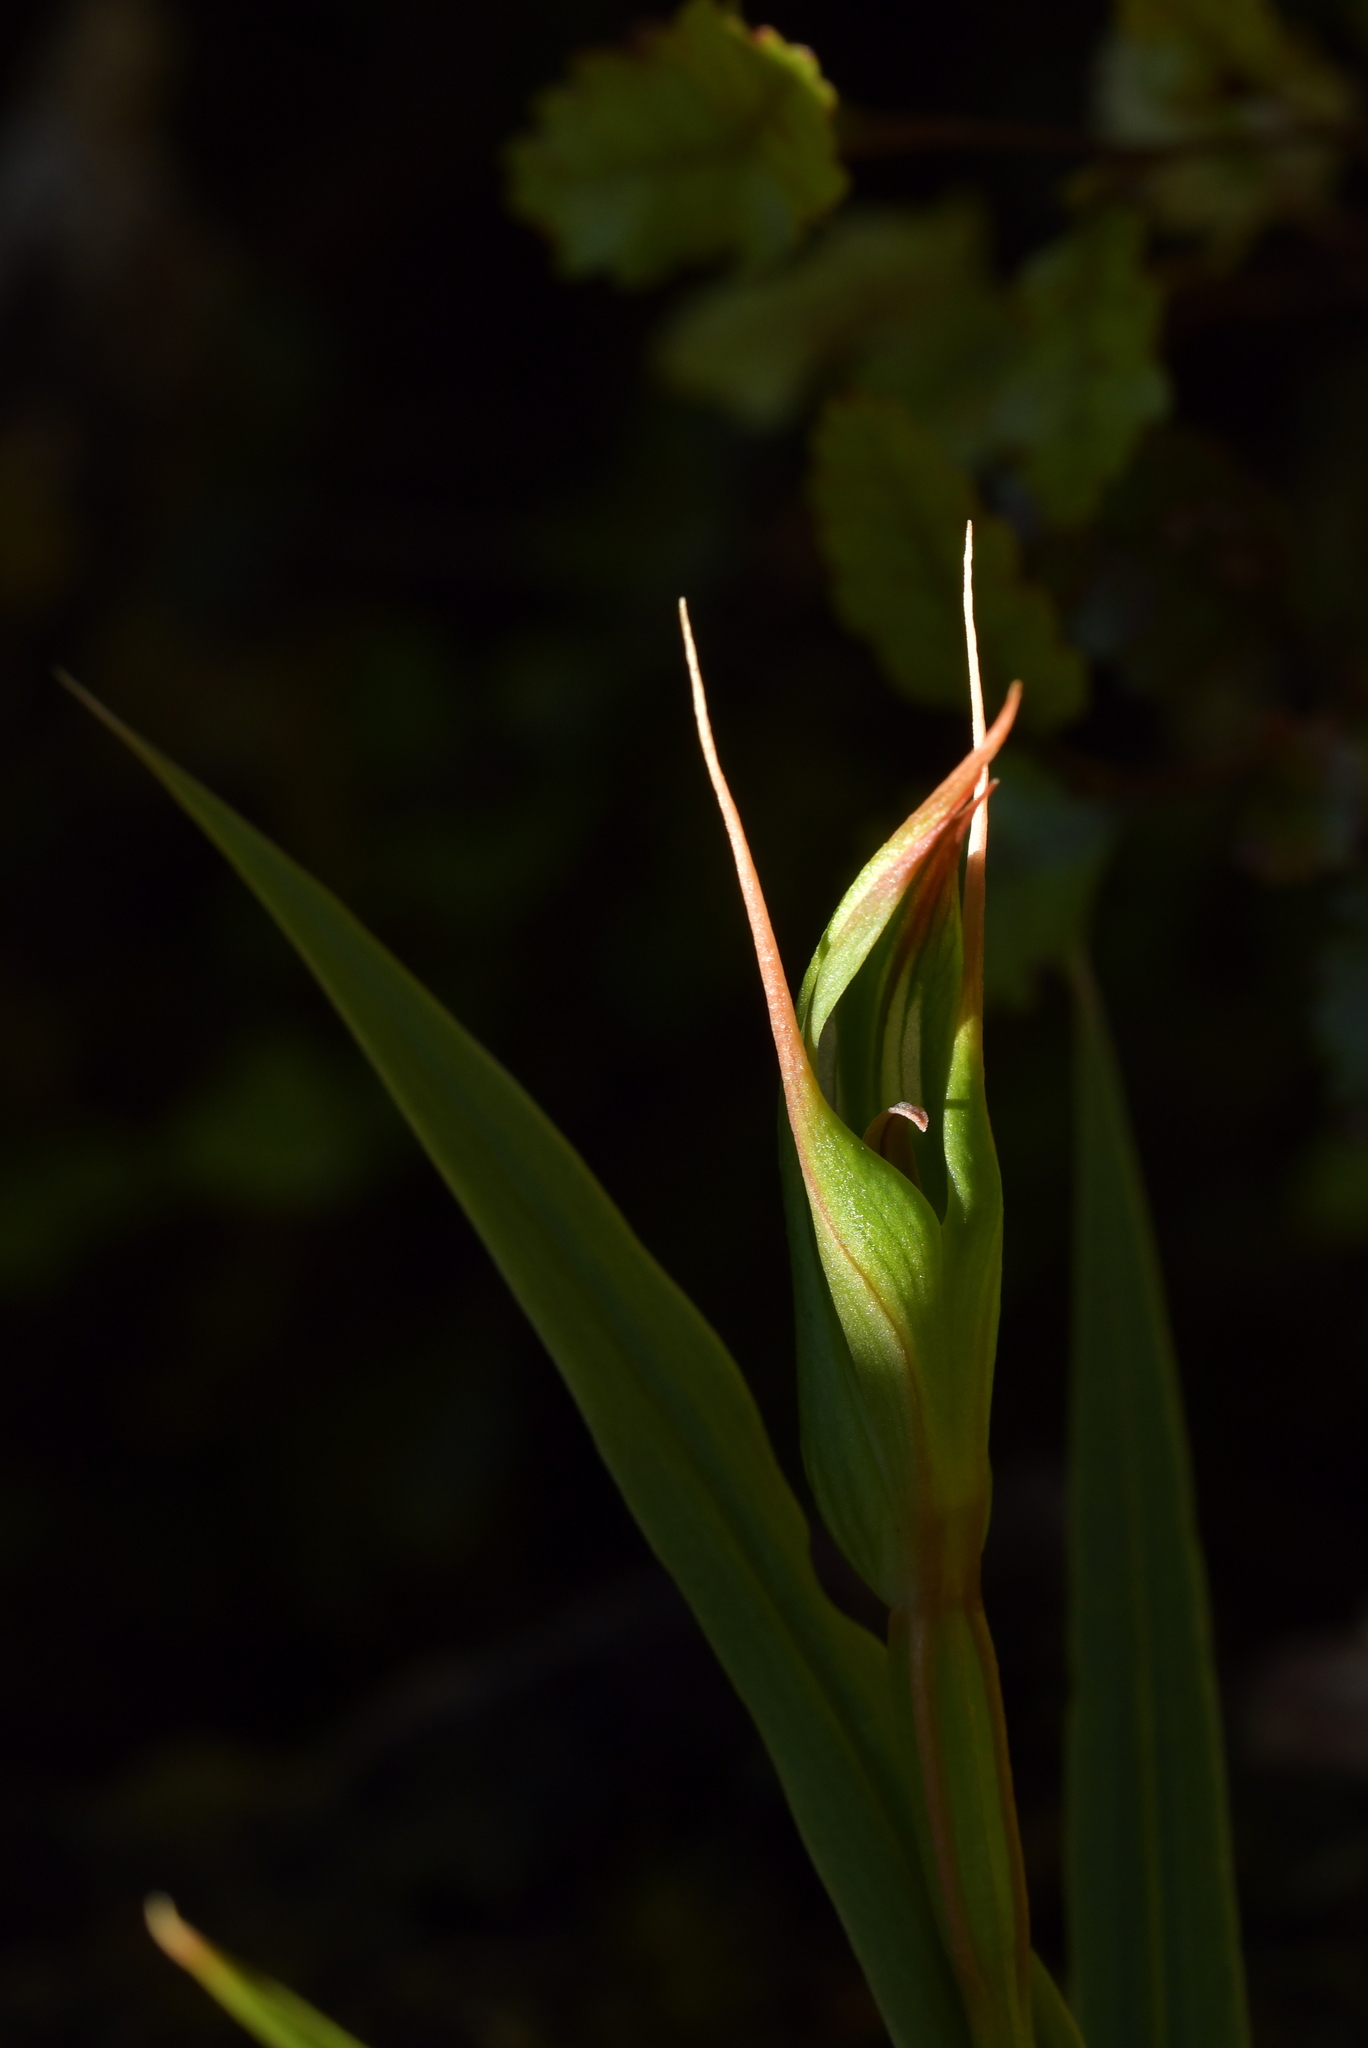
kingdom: Plantae
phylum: Tracheophyta
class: Liliopsida
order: Asparagales
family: Orchidaceae
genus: Pterostylis
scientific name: Pterostylis cardiostigma
